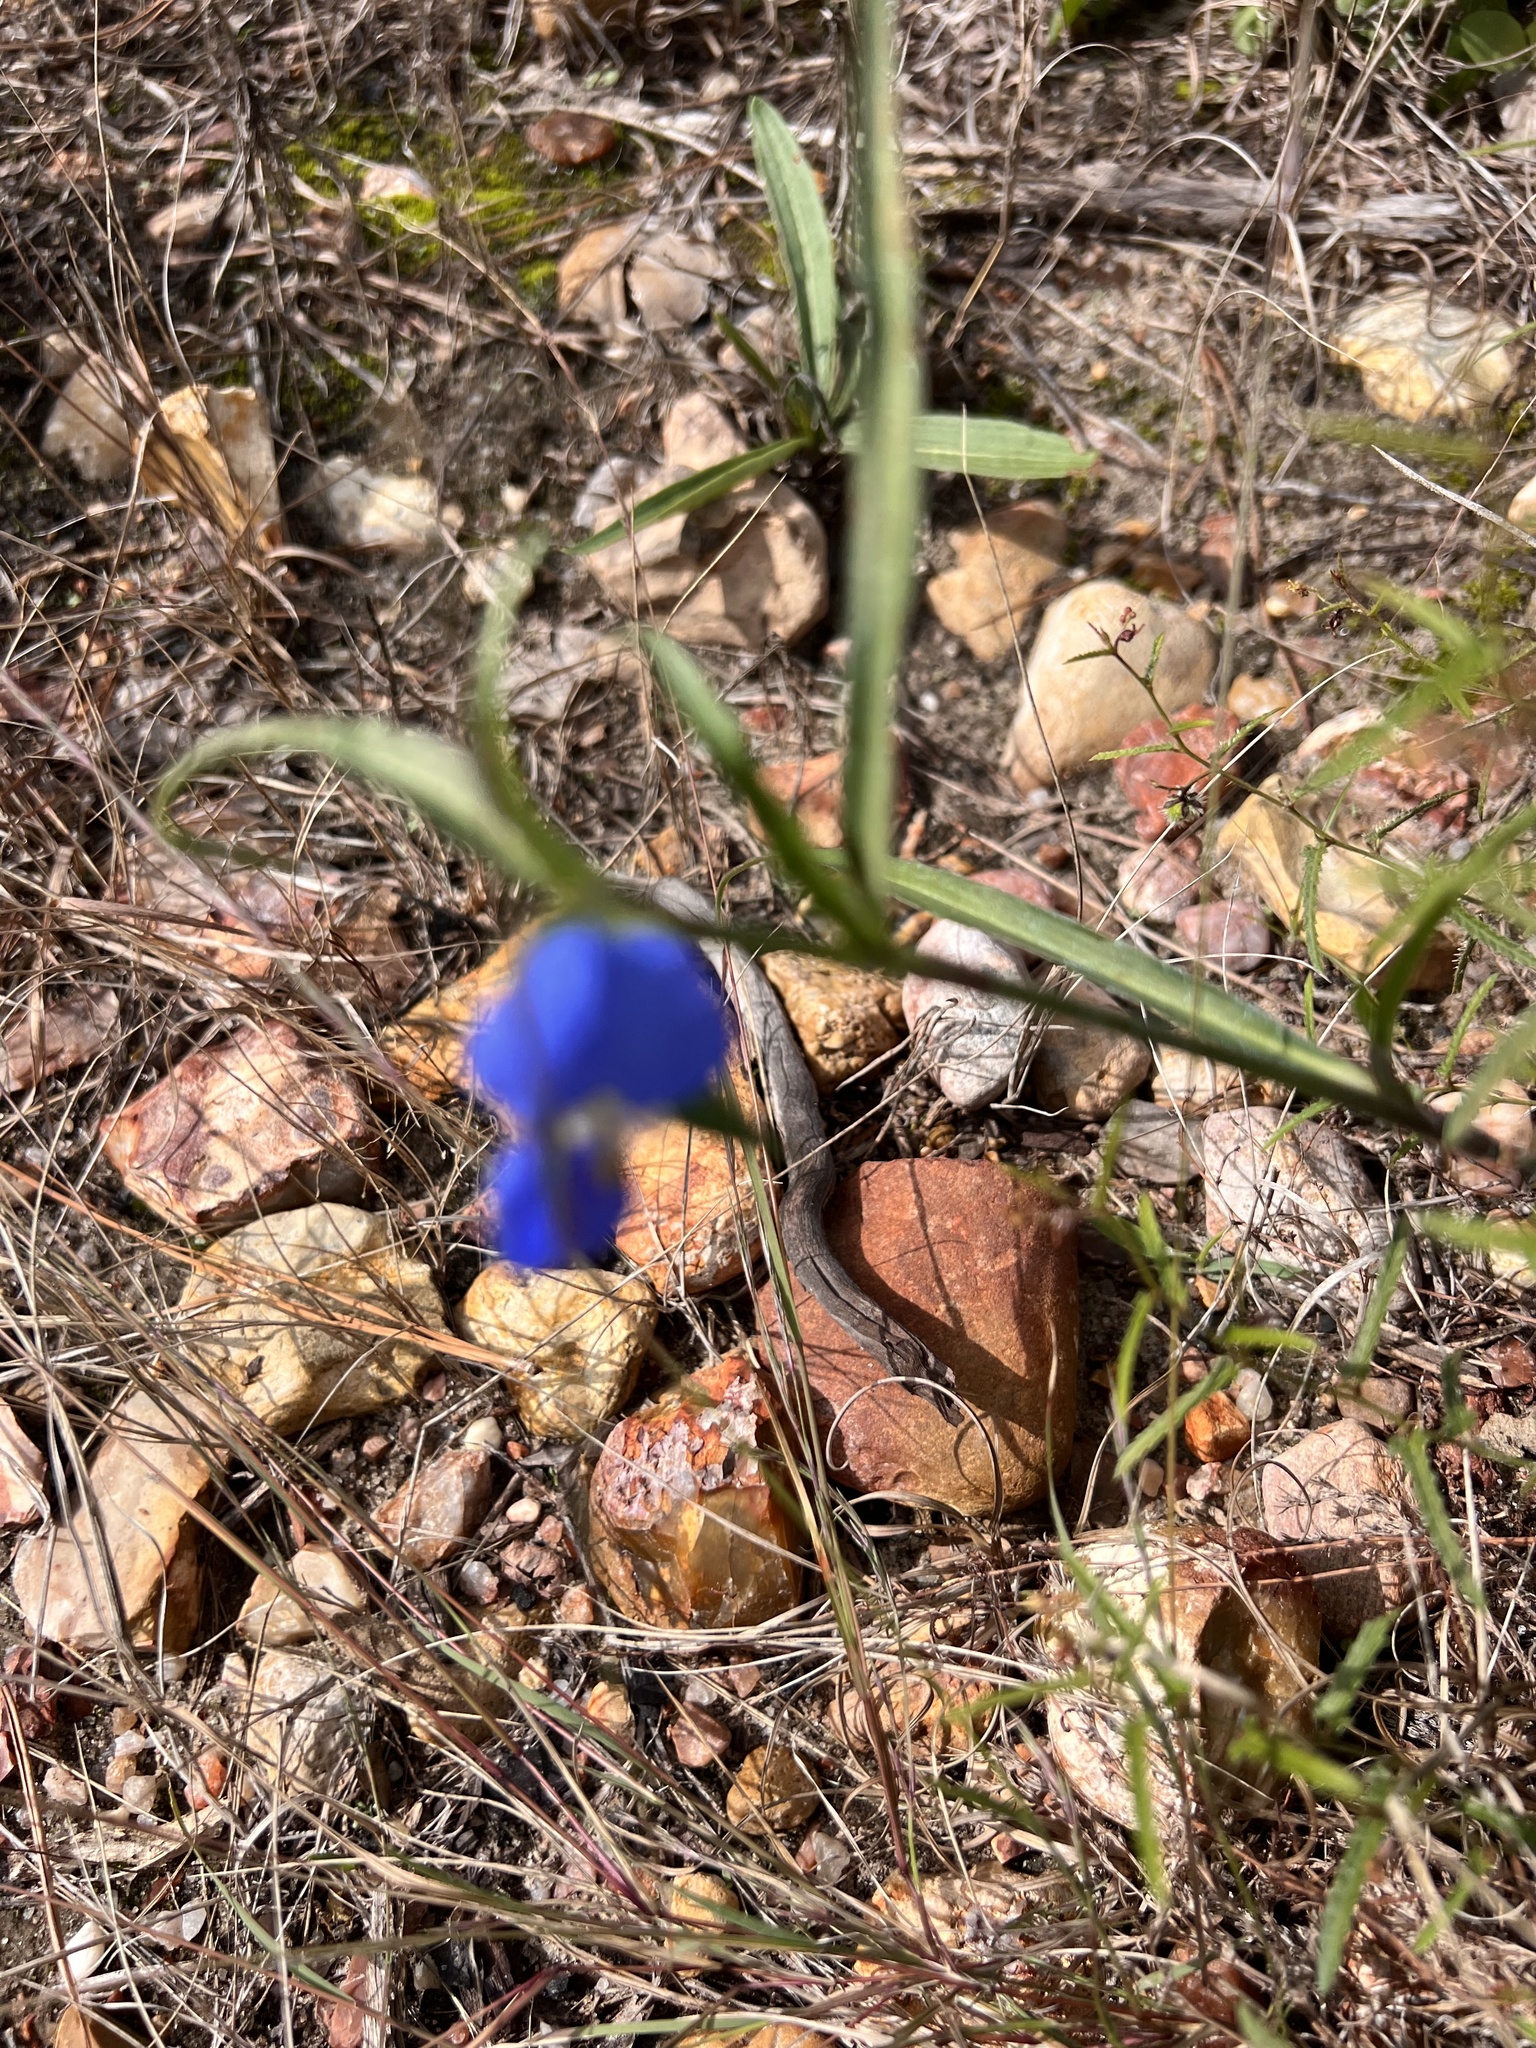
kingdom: Plantae
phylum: Tracheophyta
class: Liliopsida
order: Commelinales
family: Commelinaceae
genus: Commelina
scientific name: Commelina erecta
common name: Blousel blommetjie
